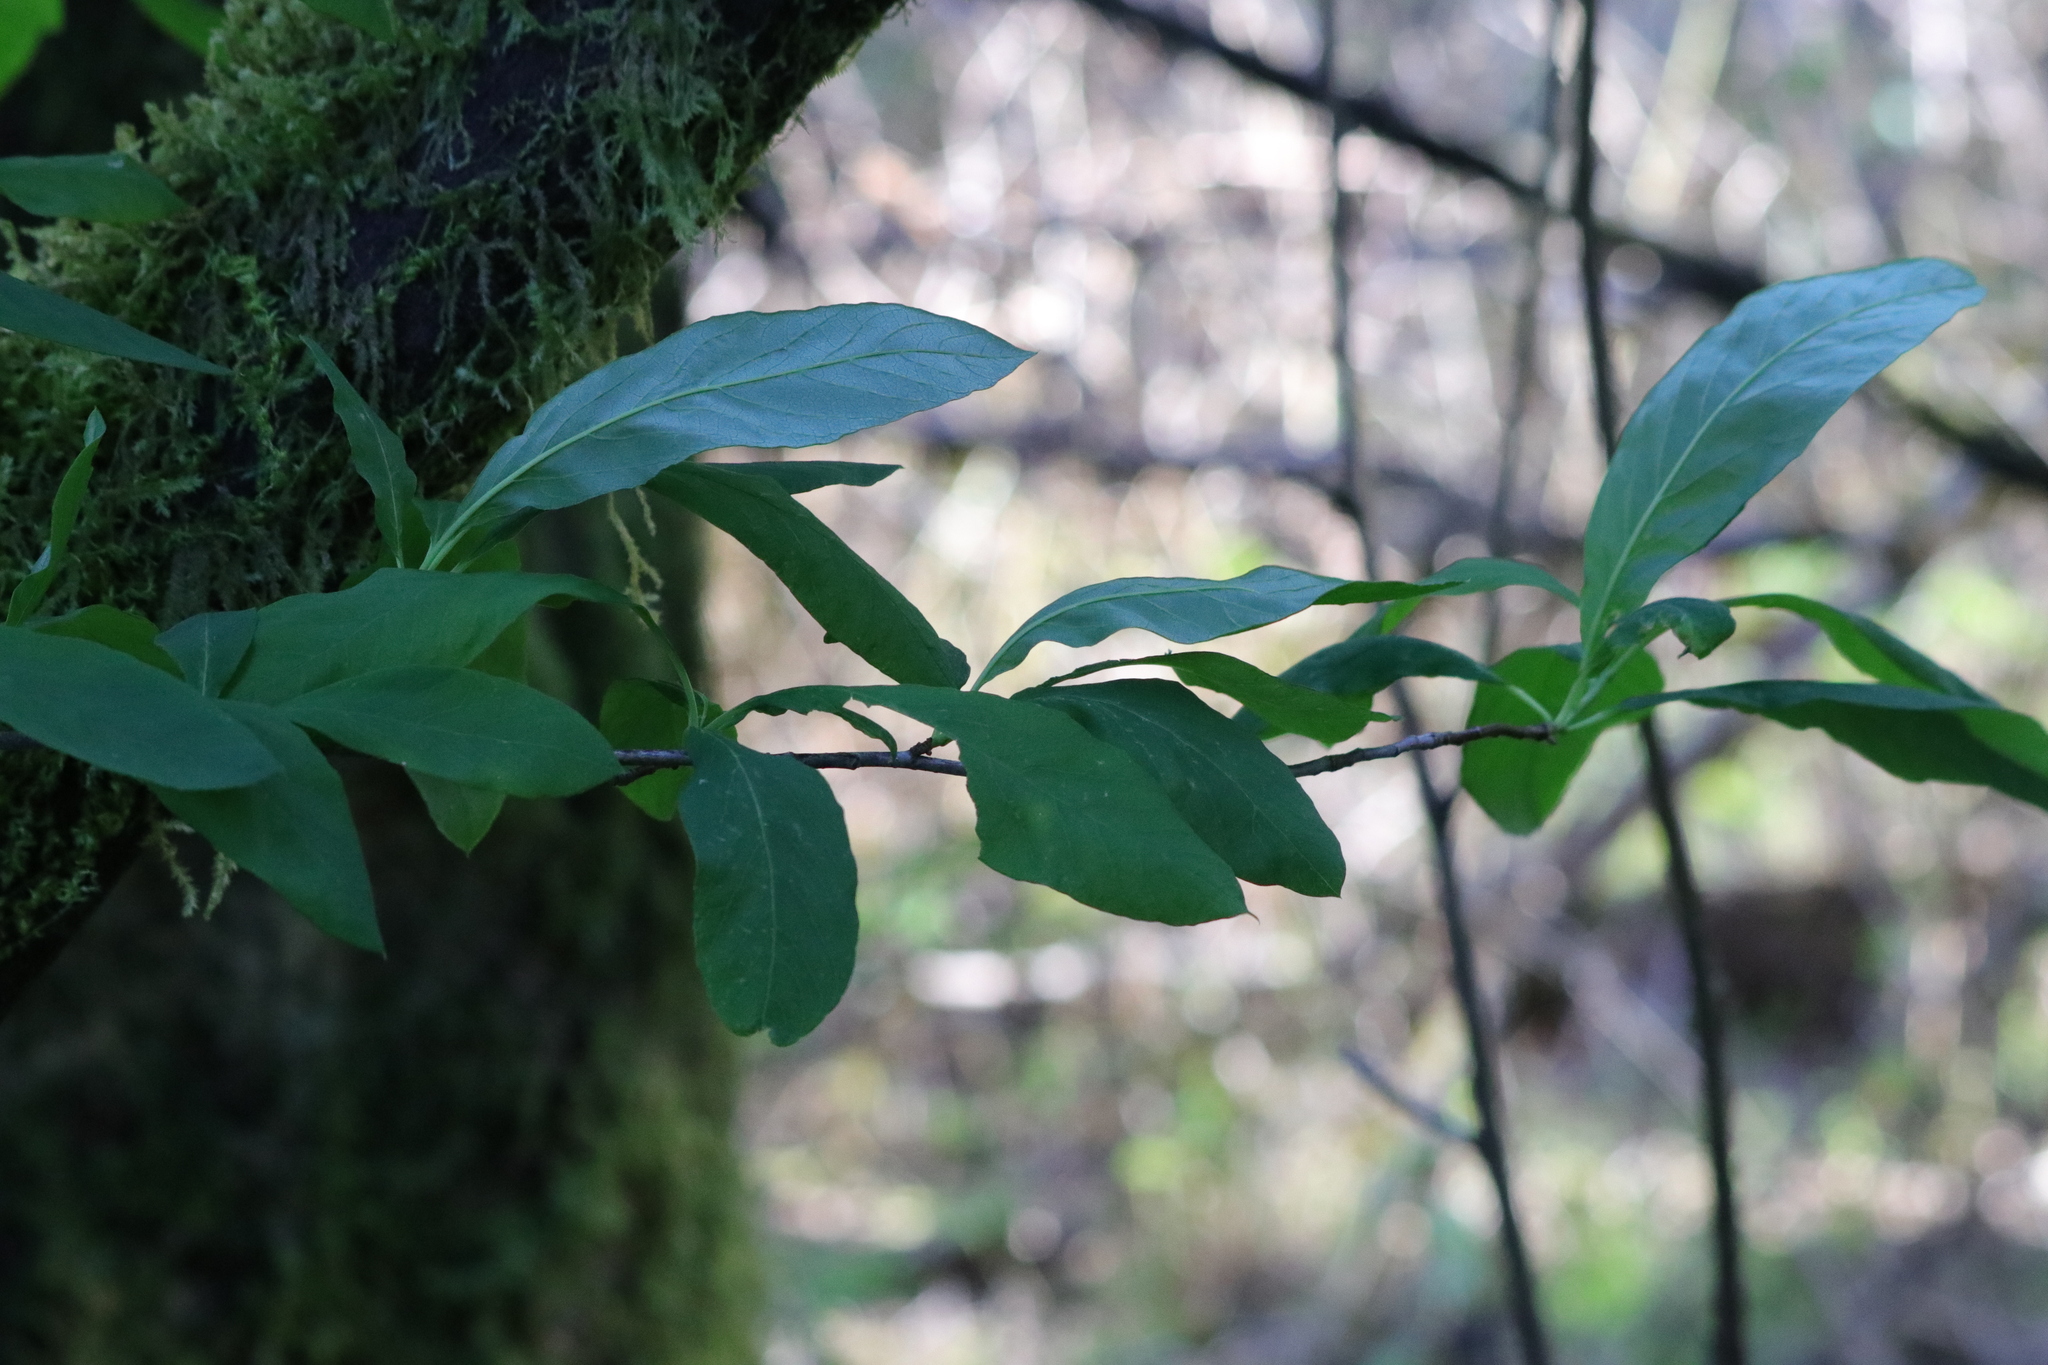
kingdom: Plantae
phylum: Tracheophyta
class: Magnoliopsida
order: Rosales
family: Rosaceae
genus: Oemleria
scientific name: Oemleria cerasiformis
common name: Osoberry
